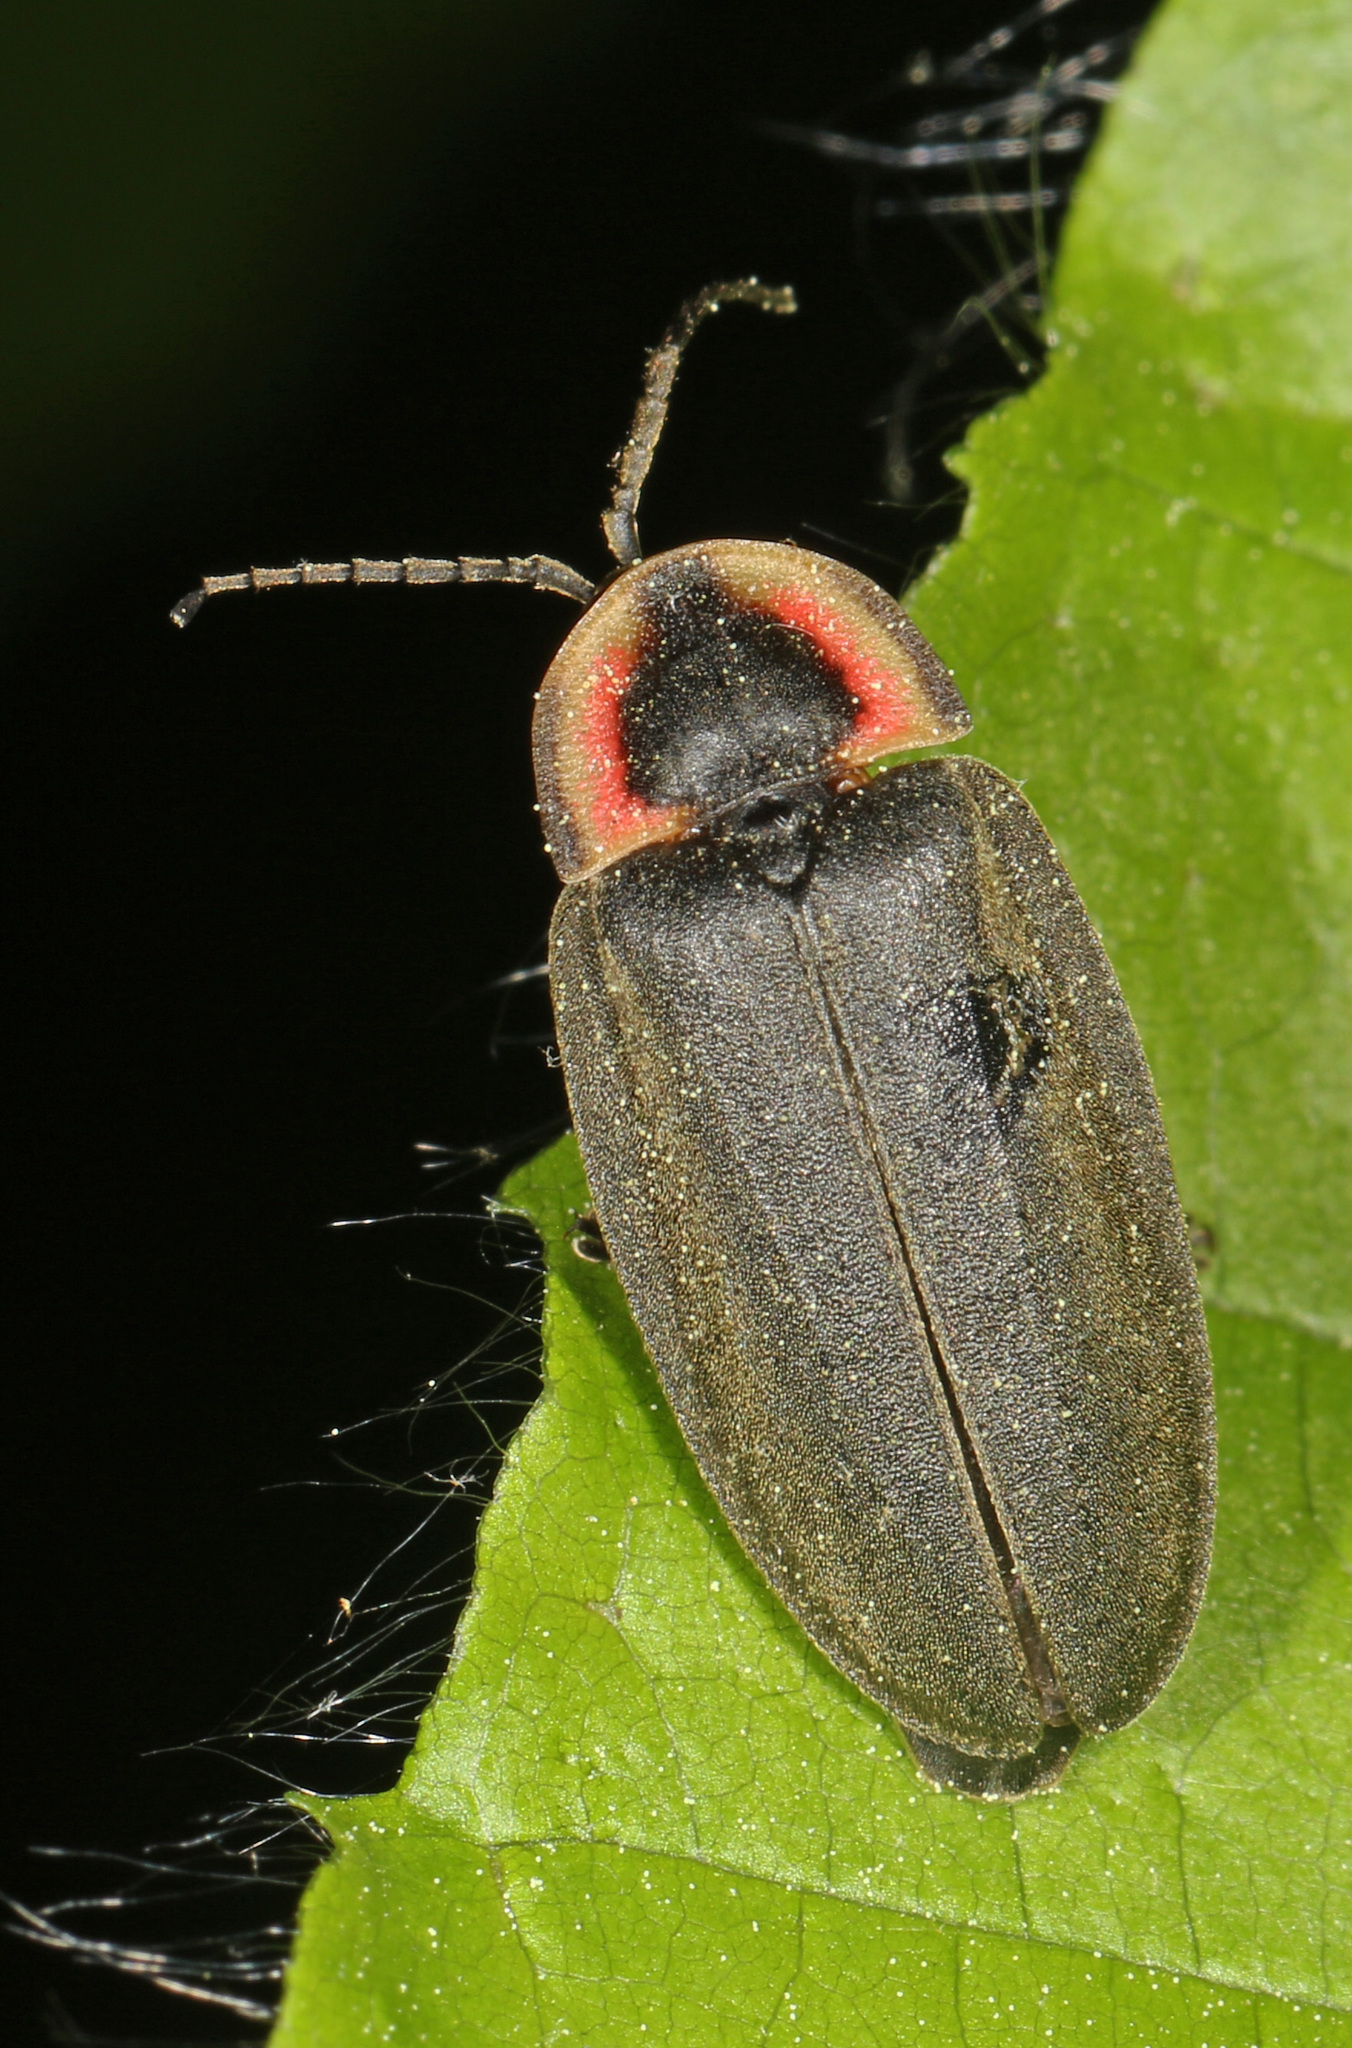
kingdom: Animalia
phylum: Arthropoda
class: Insecta
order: Coleoptera
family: Lampyridae
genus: Photinus
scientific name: Photinus corrusca
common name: Winter firefly
